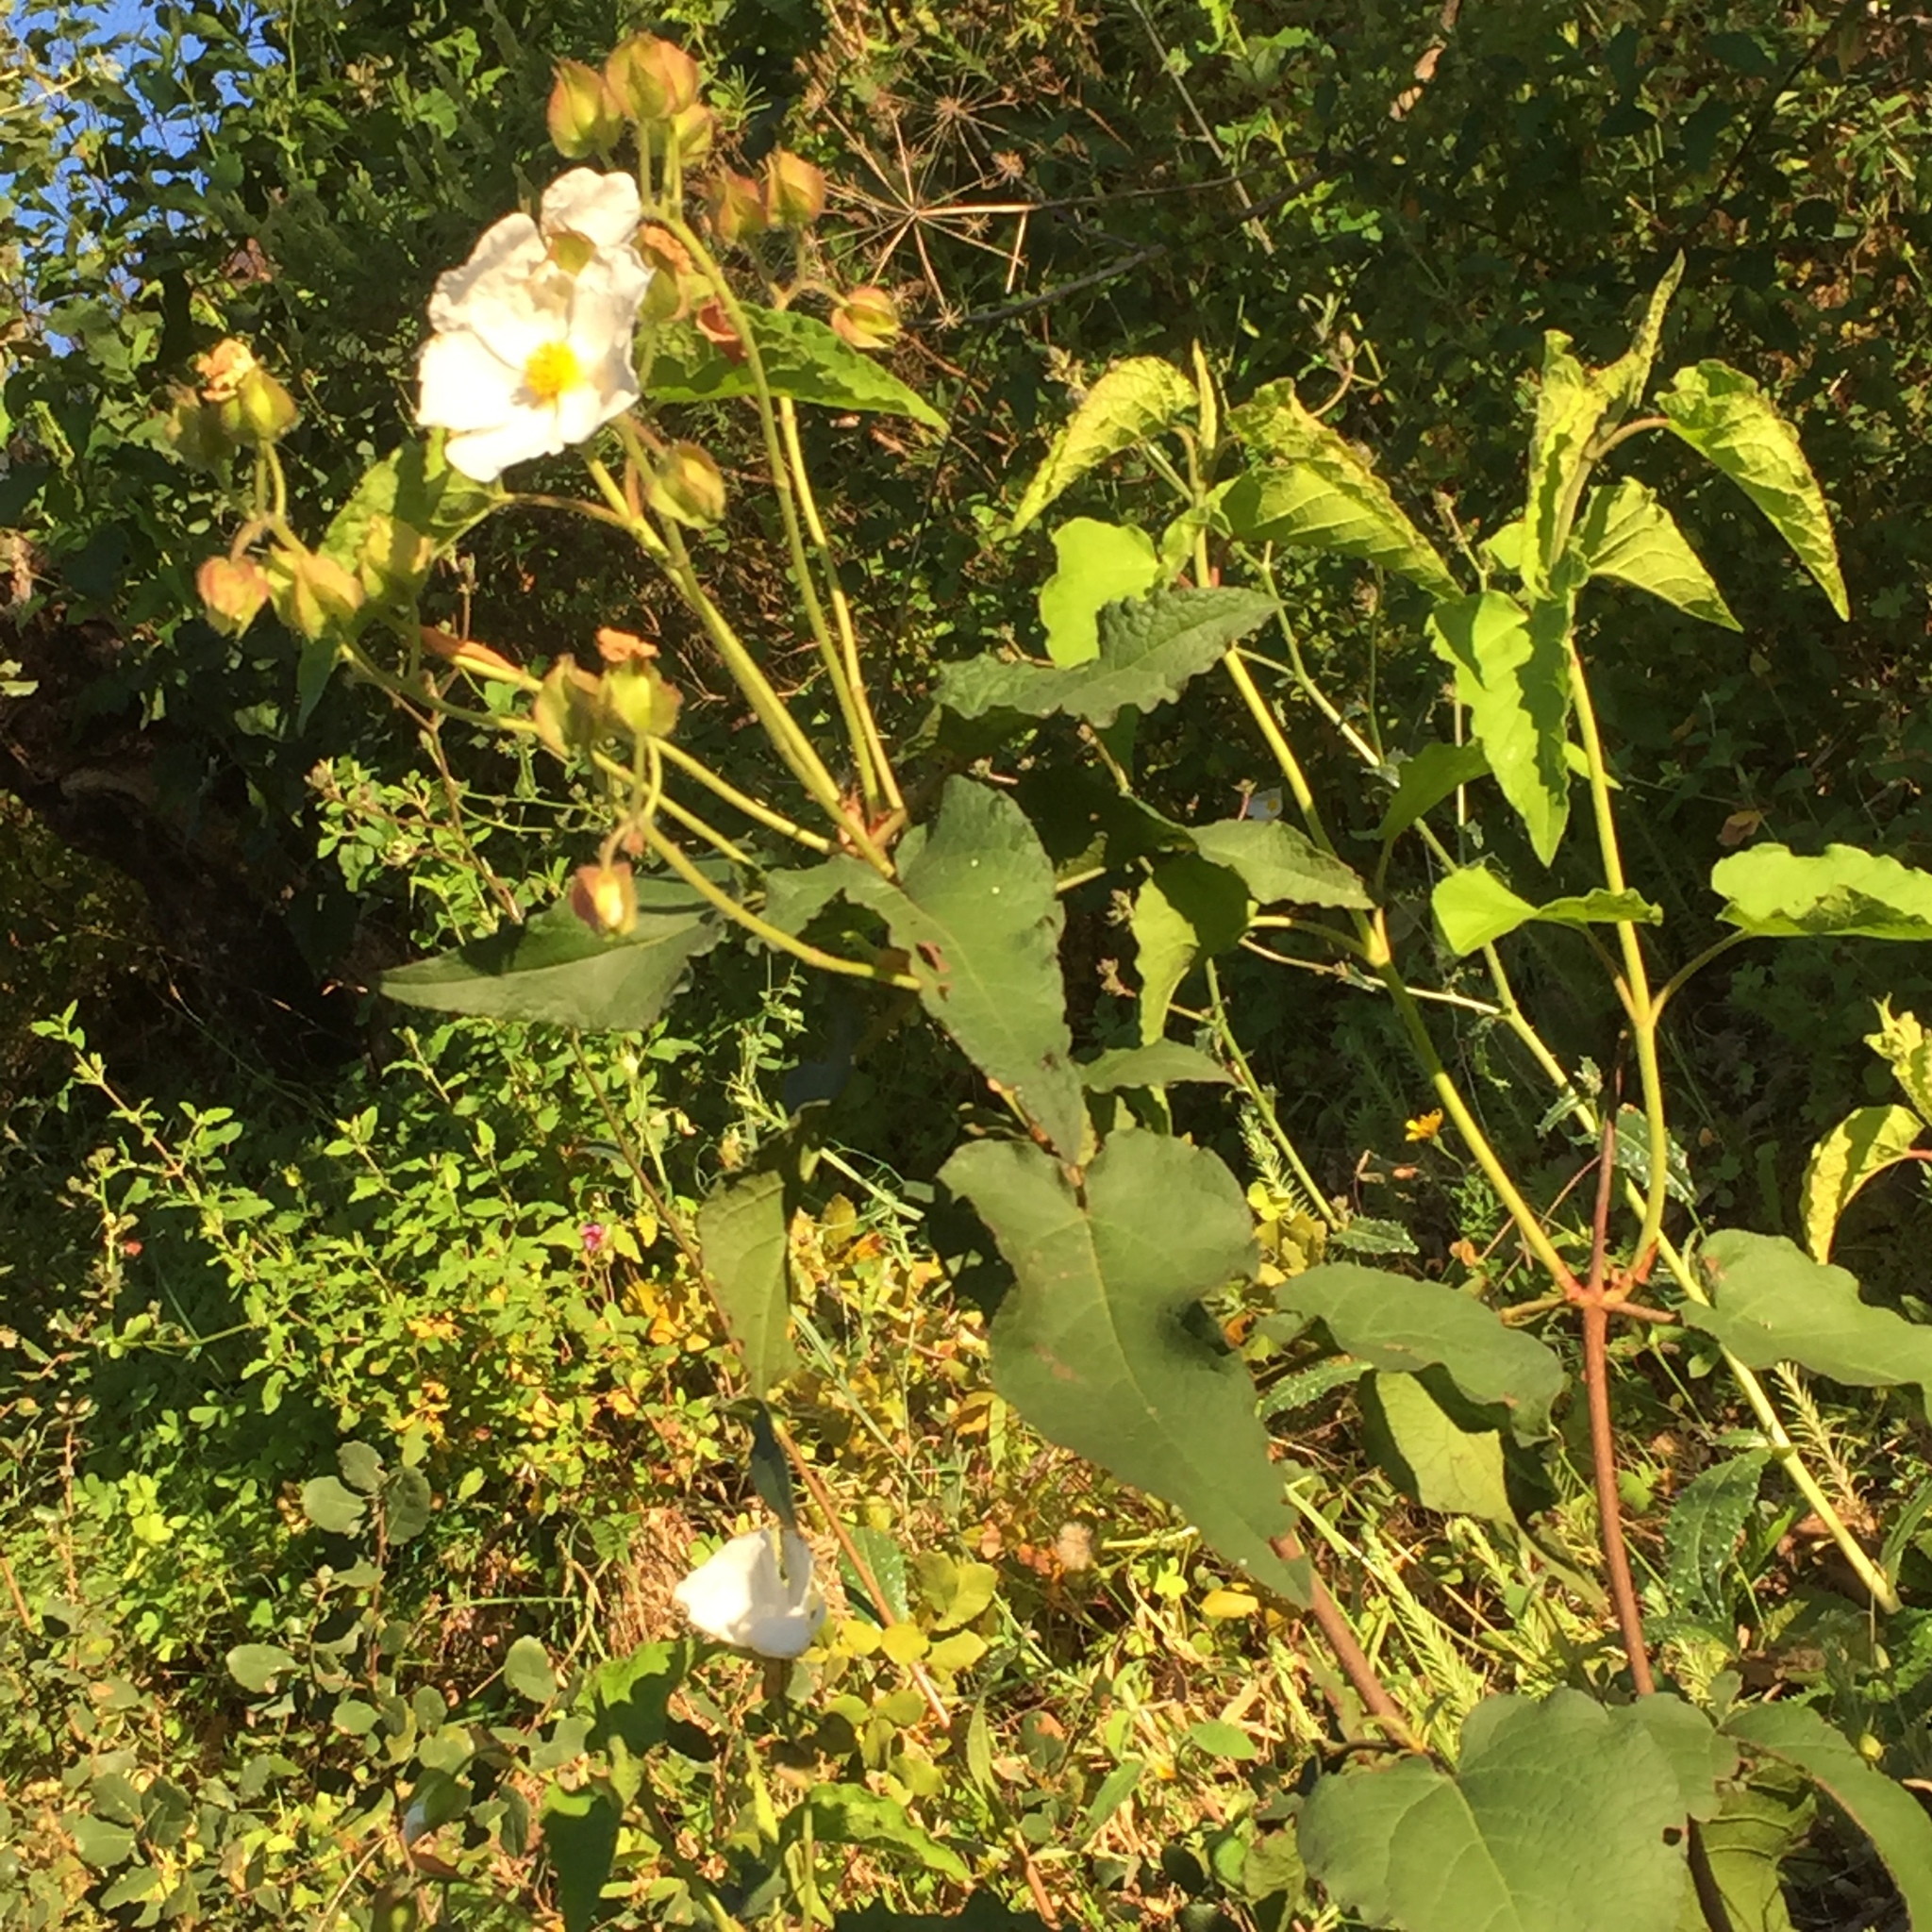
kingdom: Plantae
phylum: Tracheophyta
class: Magnoliopsida
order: Malvales
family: Cistaceae
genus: Cistus
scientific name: Cistus populifolius
